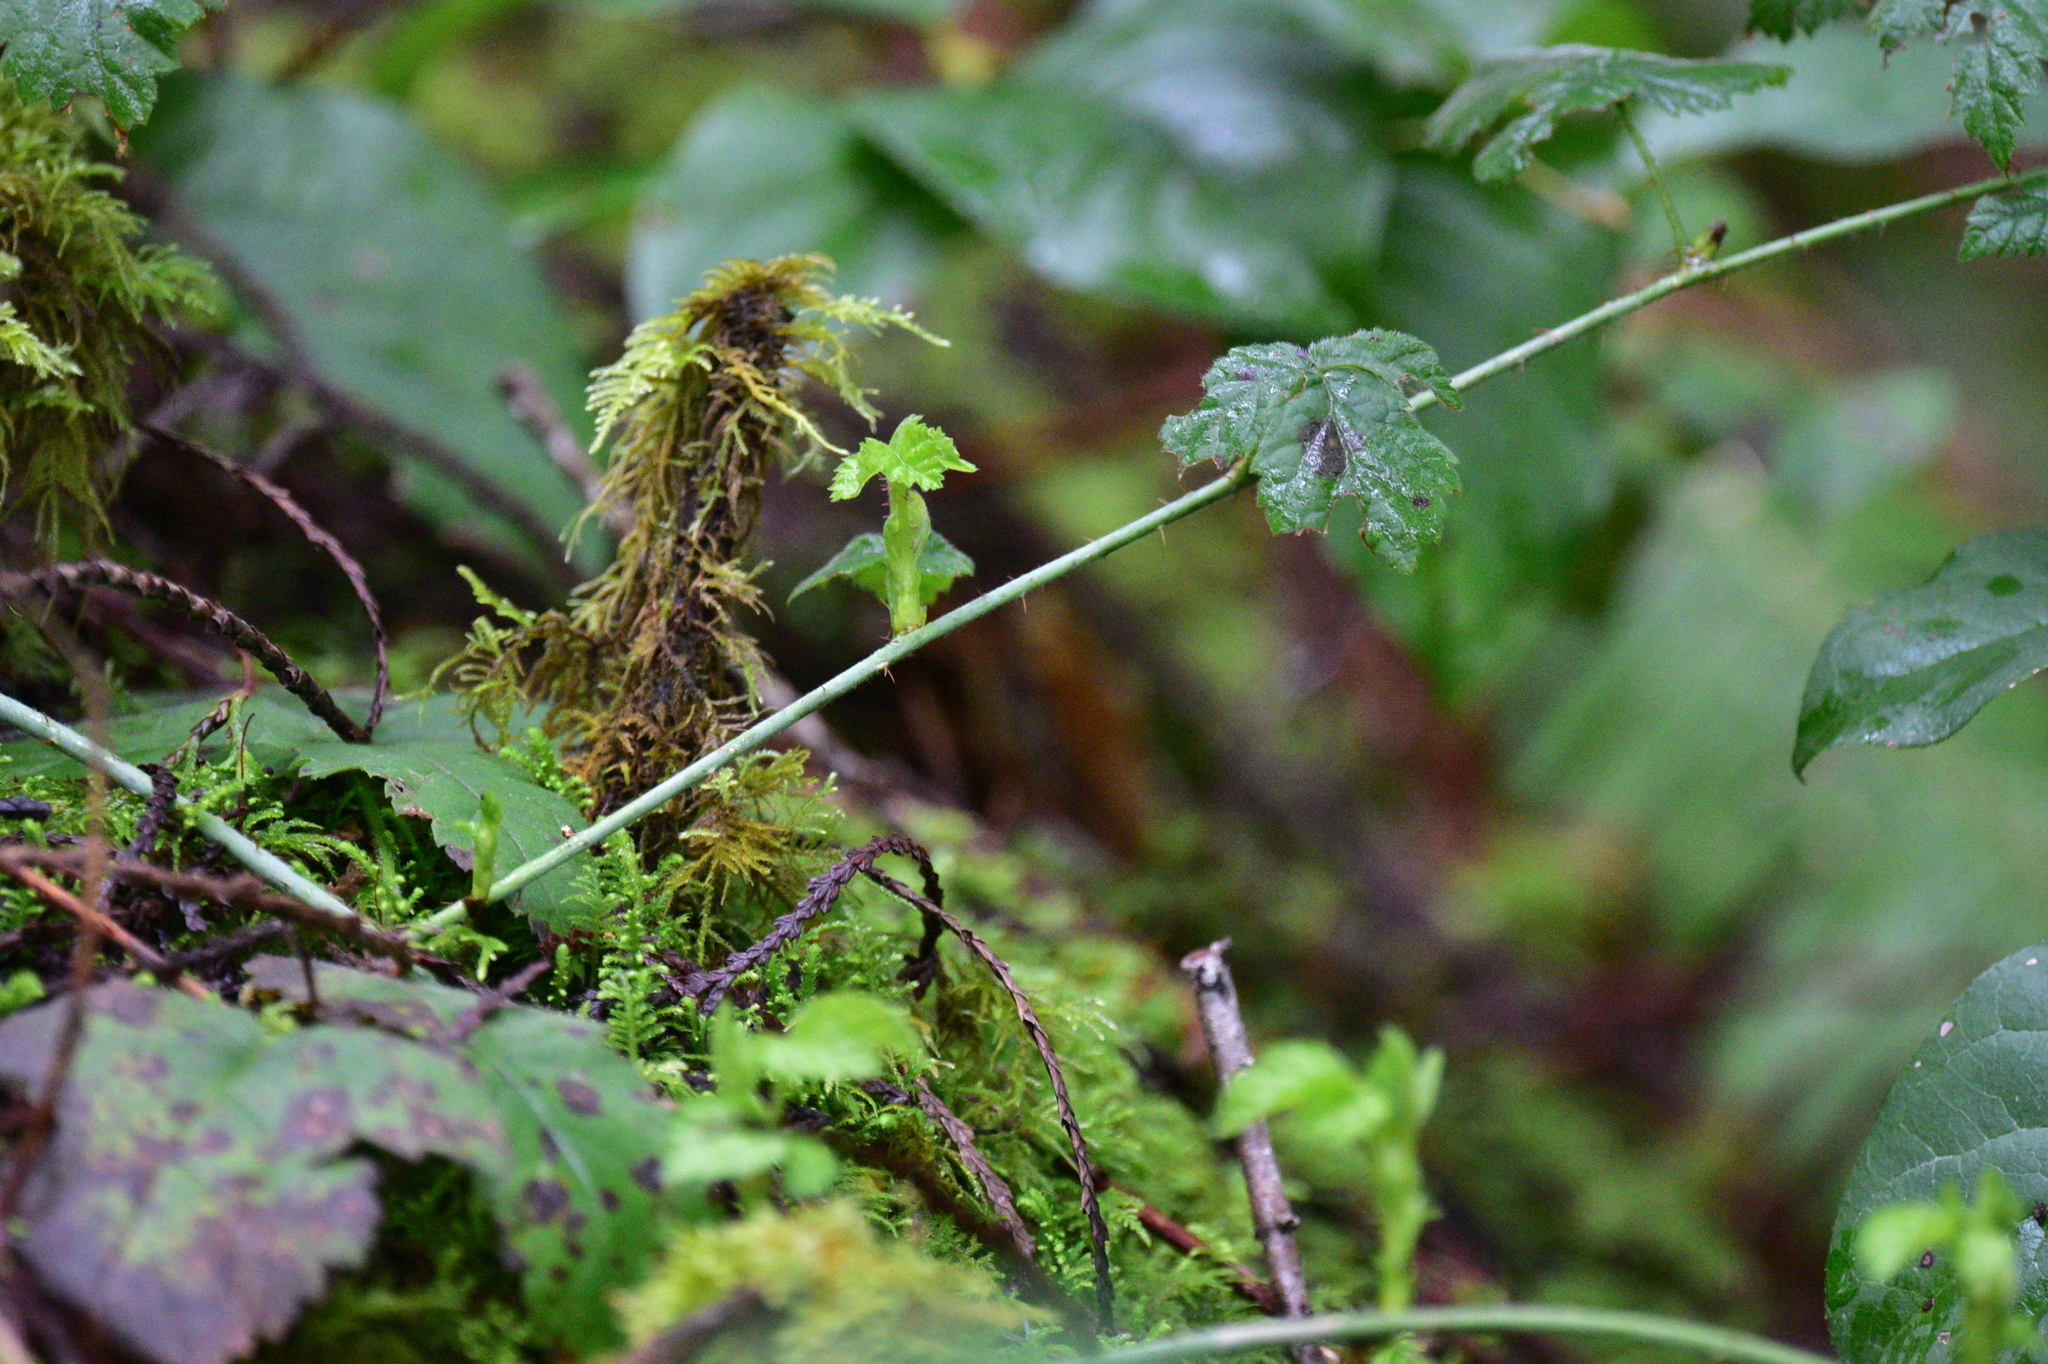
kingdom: Plantae
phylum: Tracheophyta
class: Magnoliopsida
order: Rosales
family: Rosaceae
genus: Rubus
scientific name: Rubus ursinus
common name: Pacific blackberry
